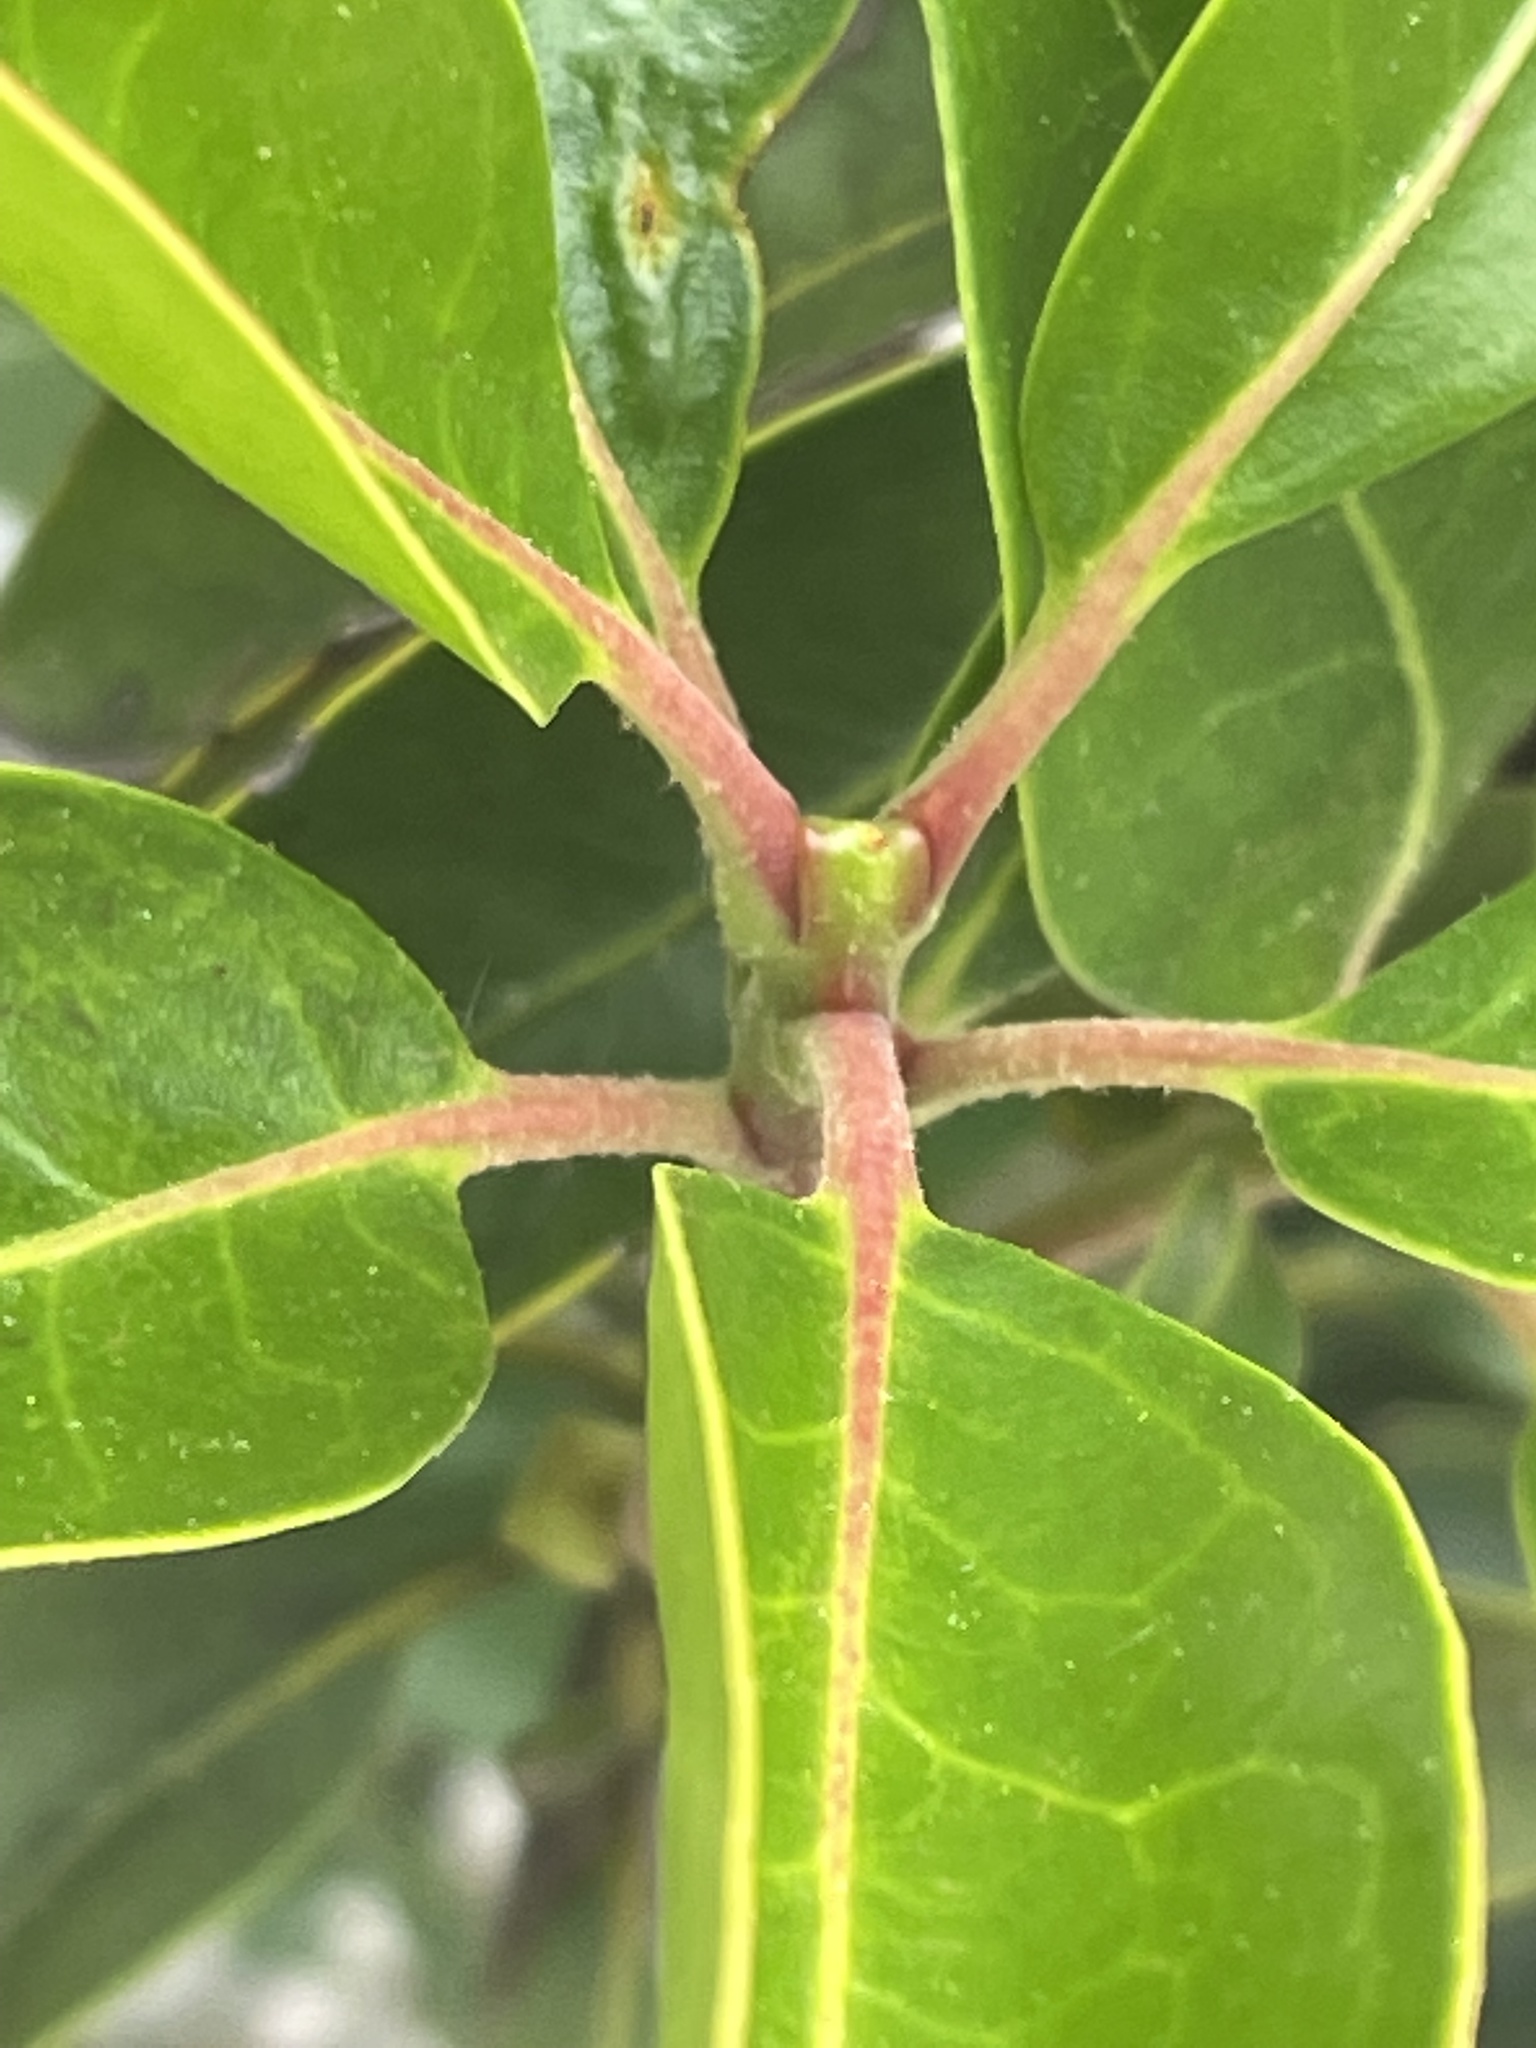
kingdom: Plantae
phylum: Tracheophyta
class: Magnoliopsida
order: Ericales
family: Ericaceae
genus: Kalmia
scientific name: Kalmia latifolia
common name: Mountain-laurel
